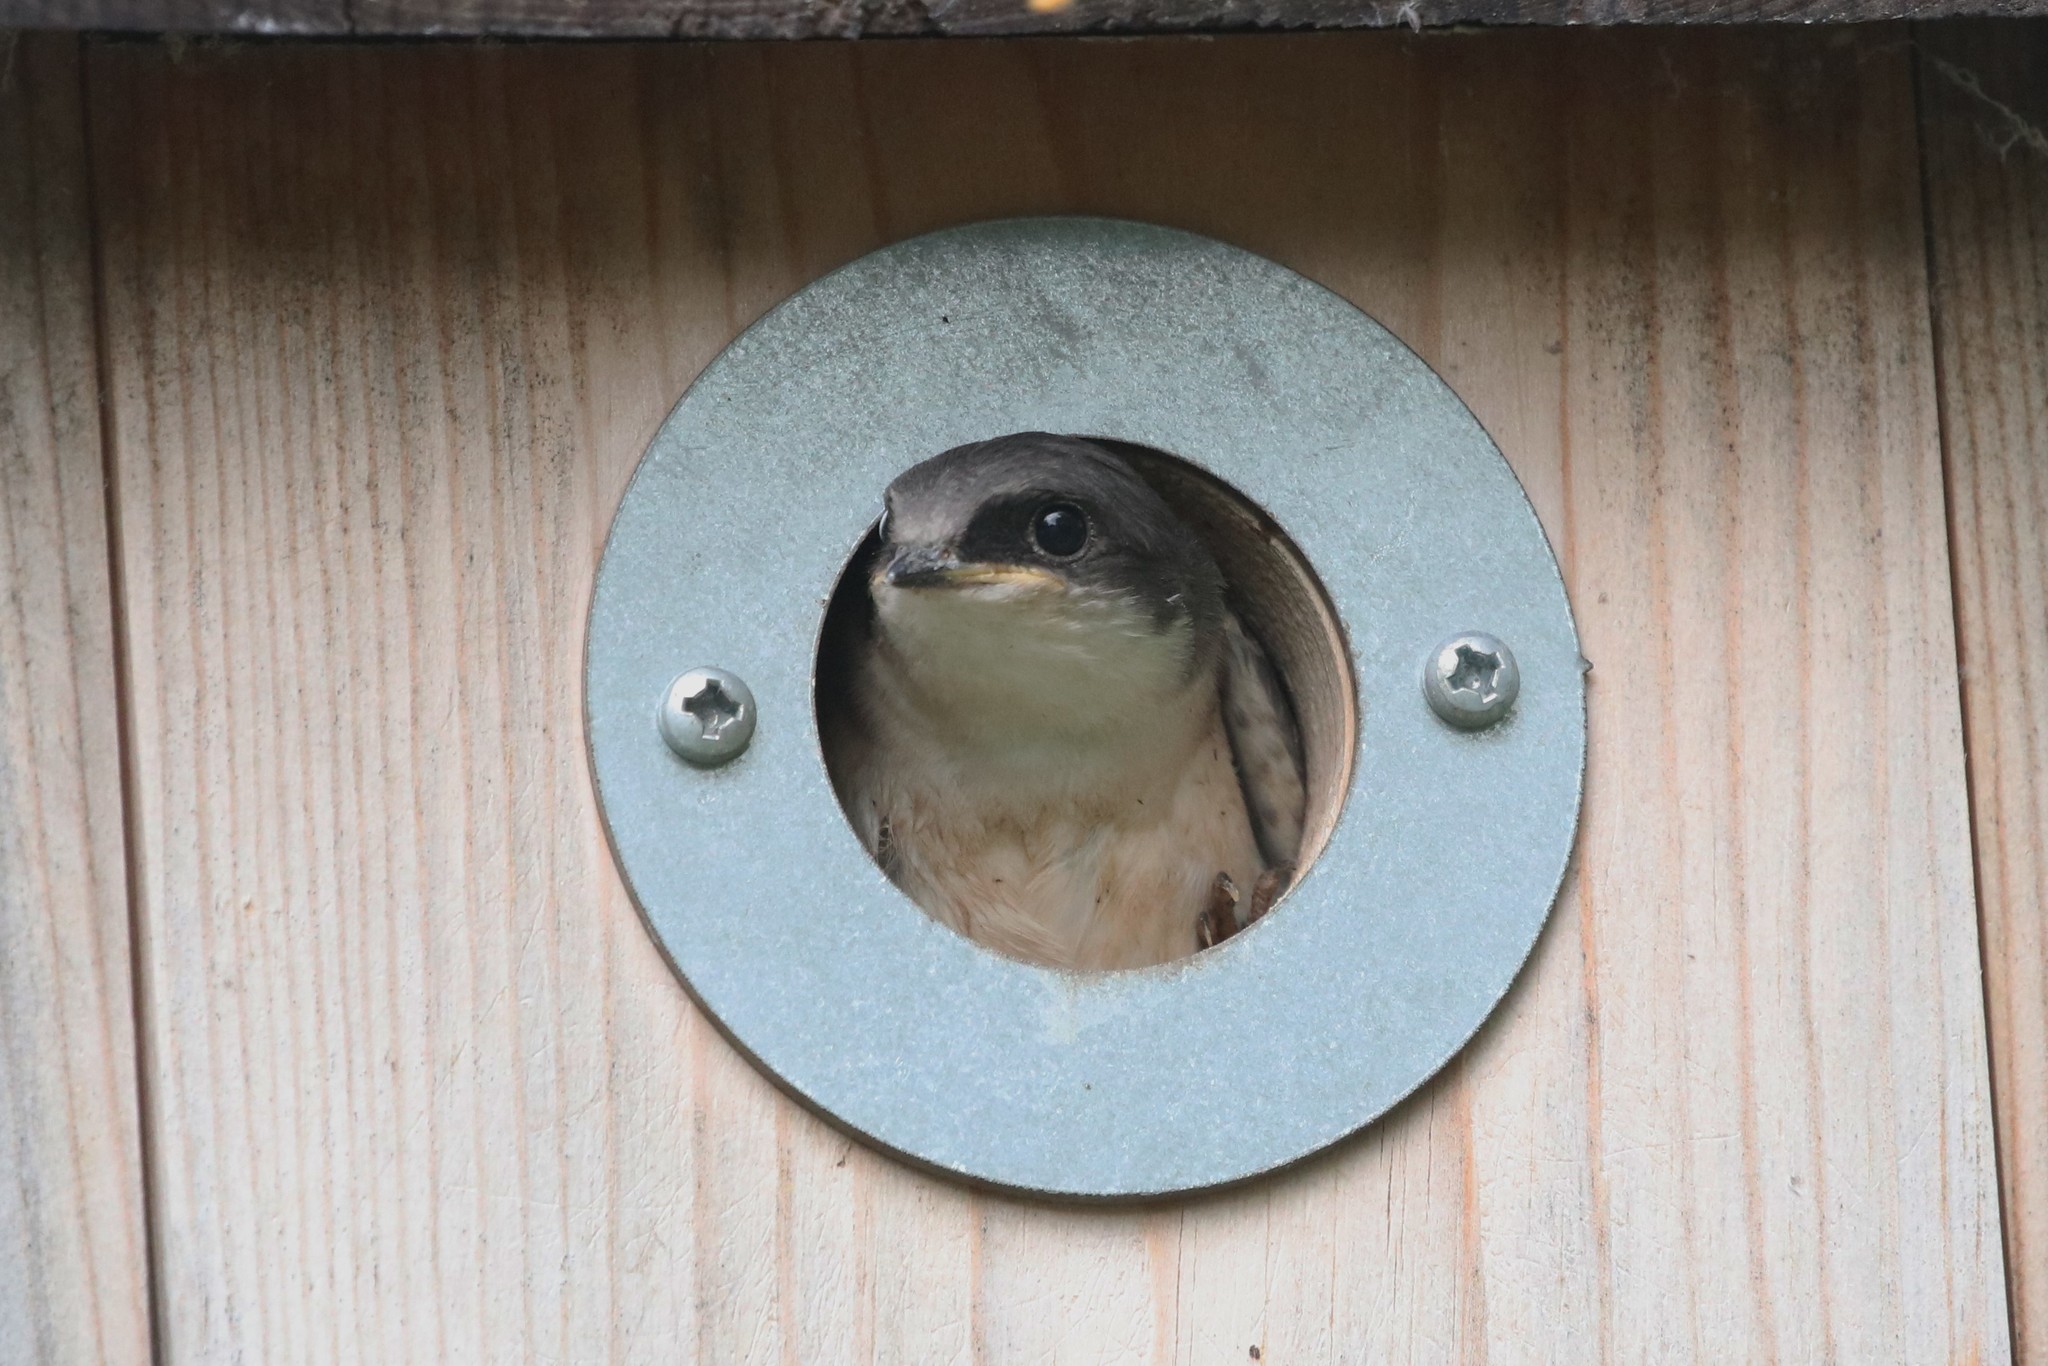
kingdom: Animalia
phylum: Chordata
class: Aves
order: Passeriformes
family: Hirundinidae
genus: Tachycineta
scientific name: Tachycineta bicolor
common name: Tree swallow
